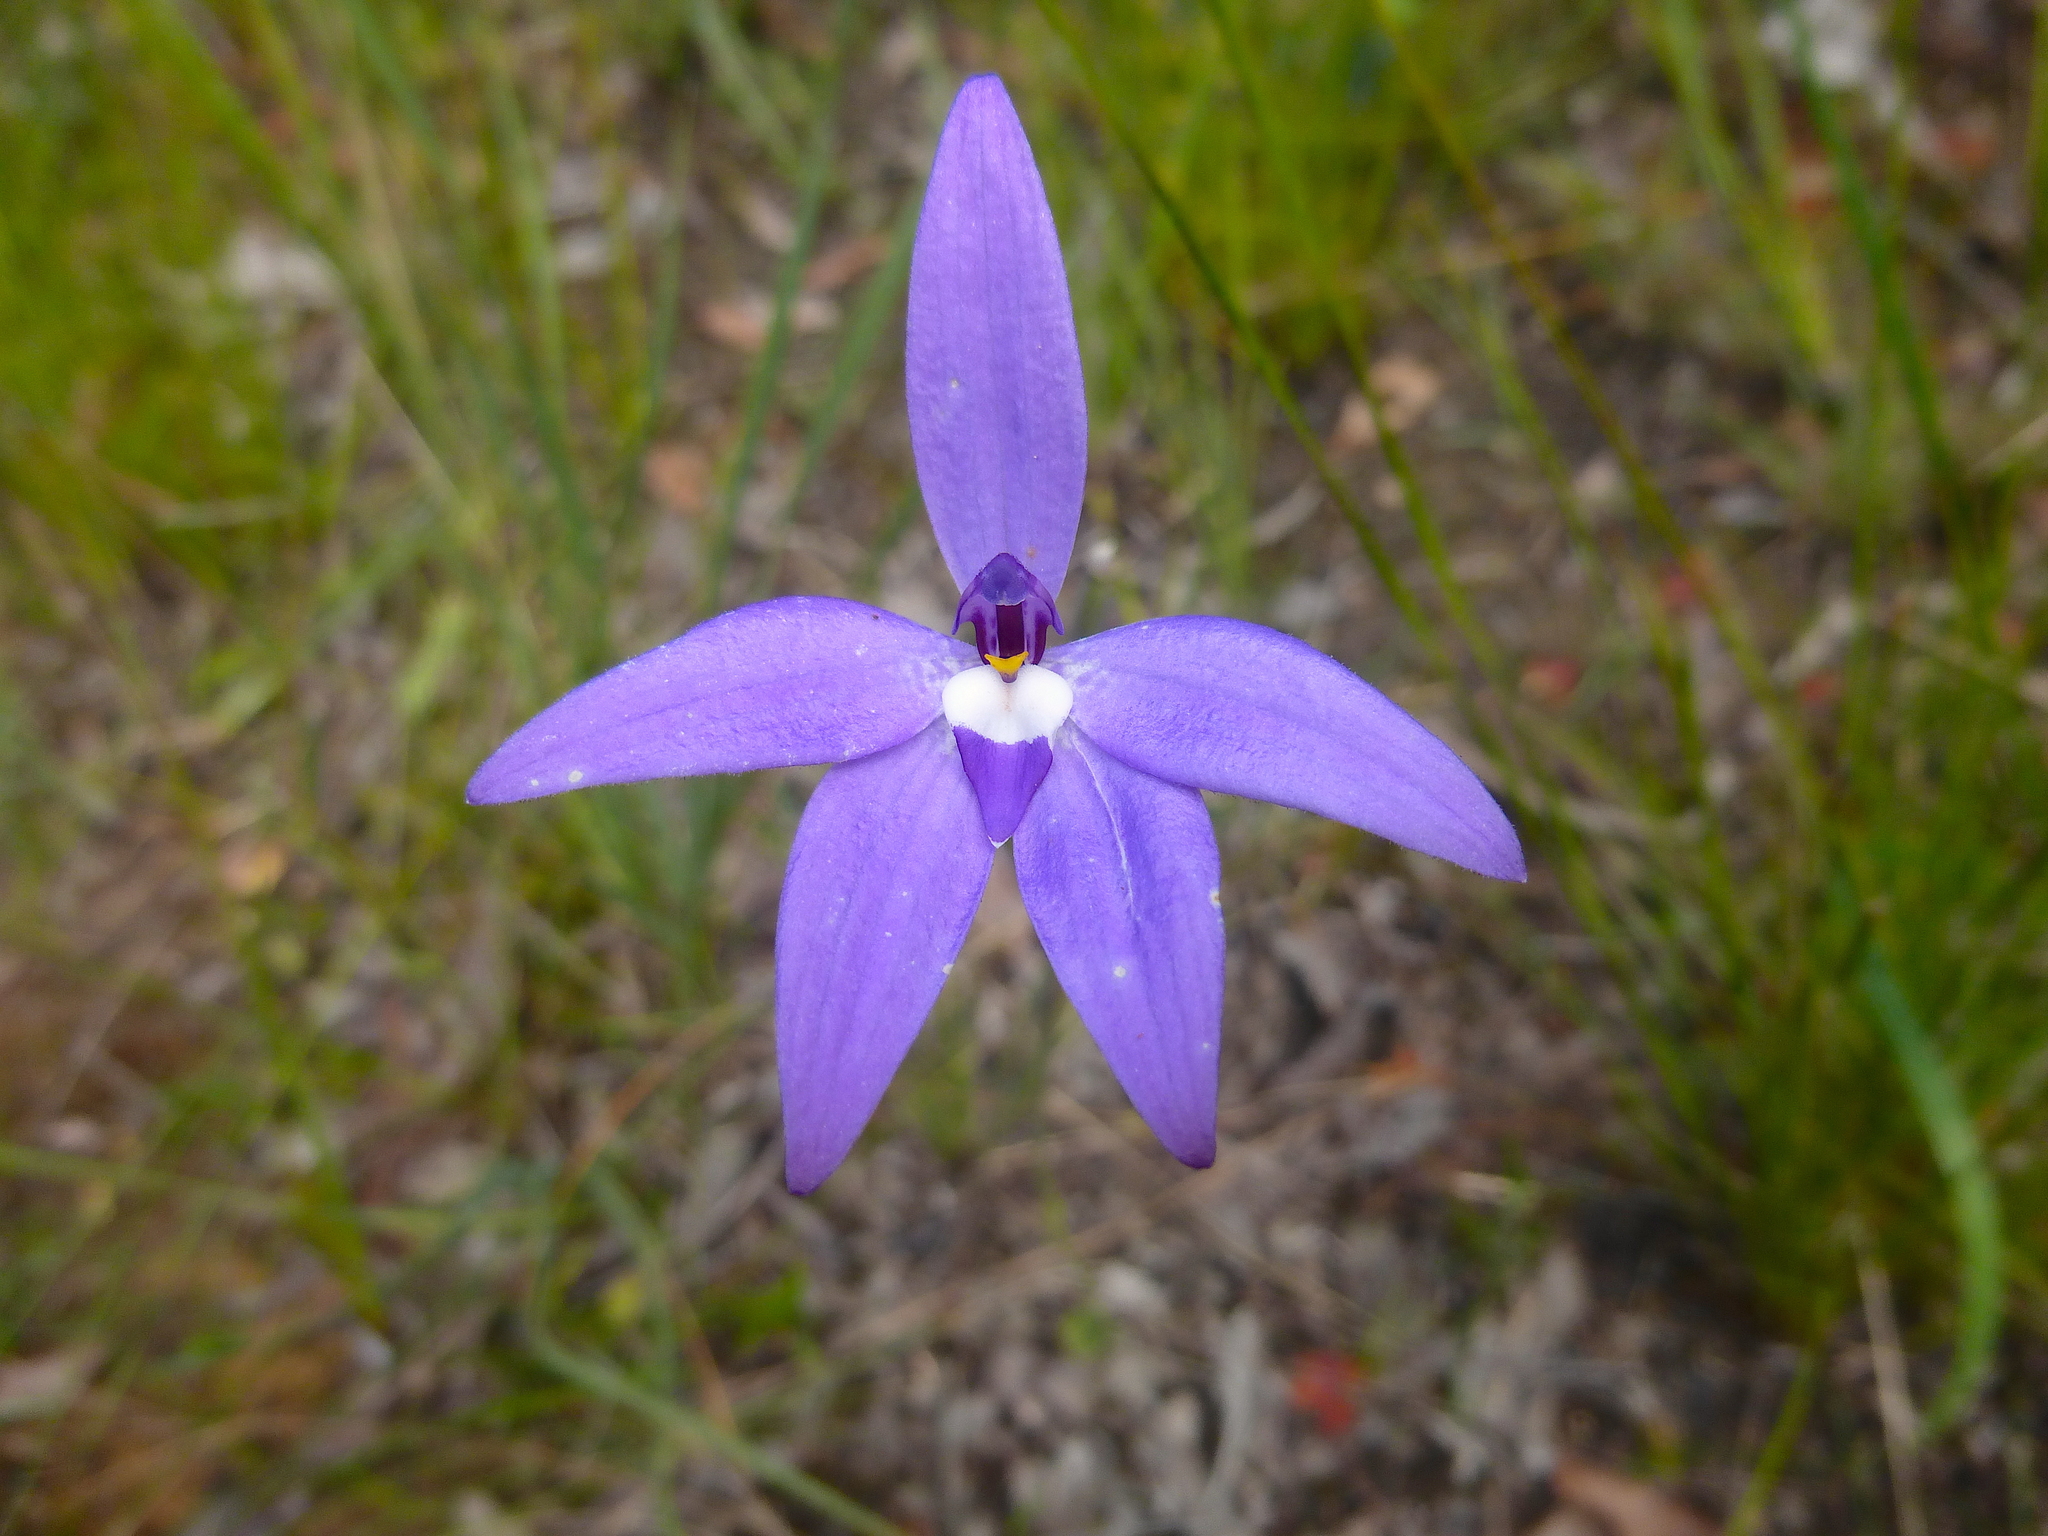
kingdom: Plantae
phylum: Tracheophyta
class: Liliopsida
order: Asparagales
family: Orchidaceae
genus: Caladenia
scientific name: Caladenia major
